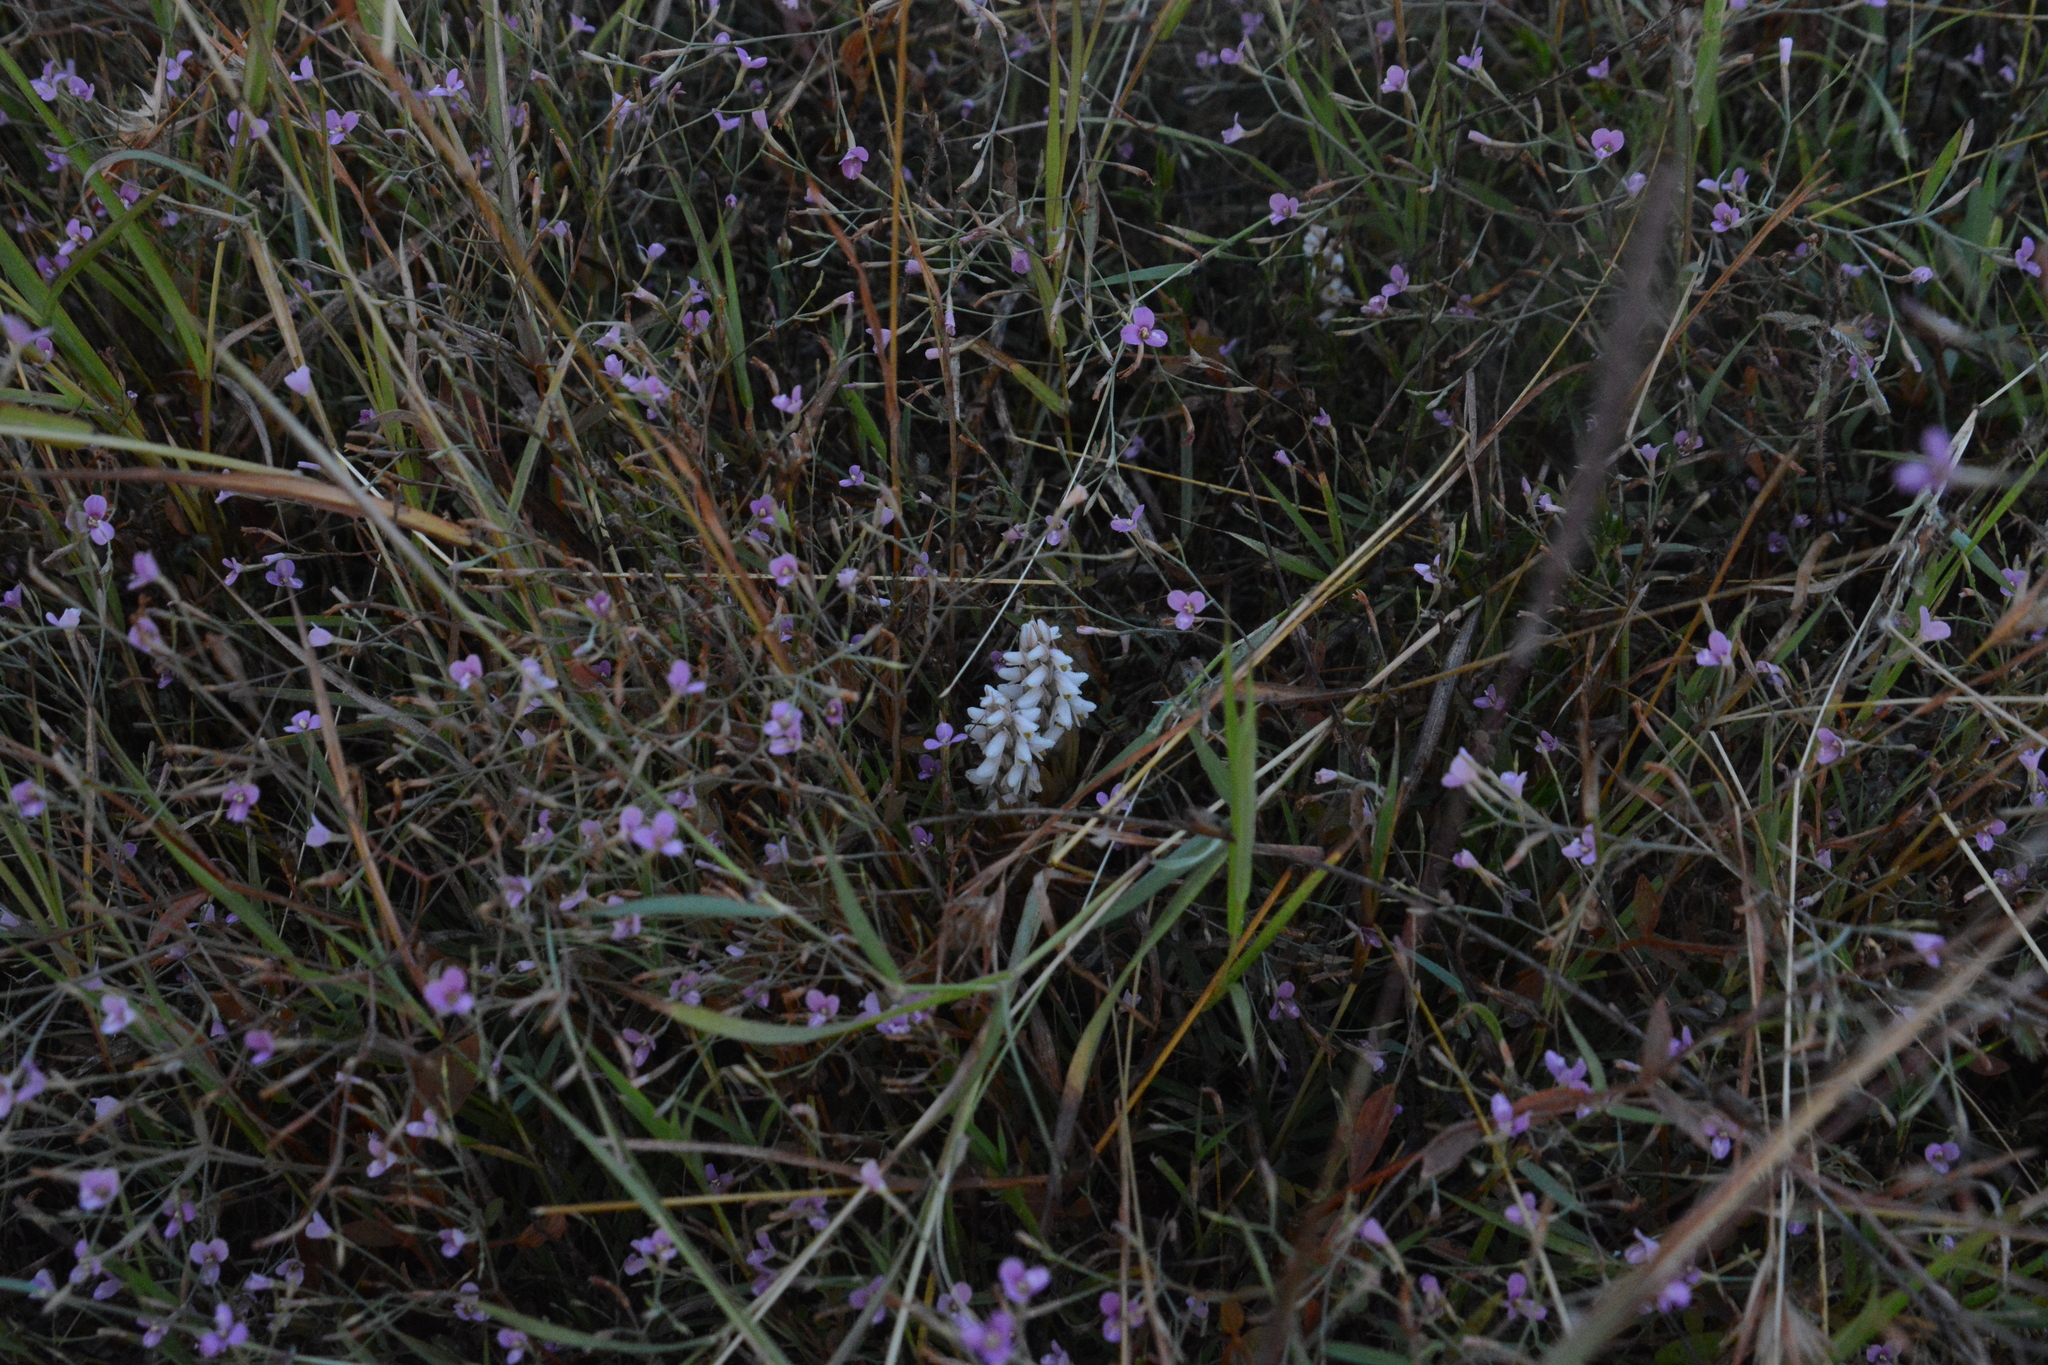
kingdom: Plantae
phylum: Tracheophyta
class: Liliopsida
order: Asparagales
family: Orchidaceae
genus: Zeuxine
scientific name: Zeuxine strateumatica
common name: Soldier's orchid
